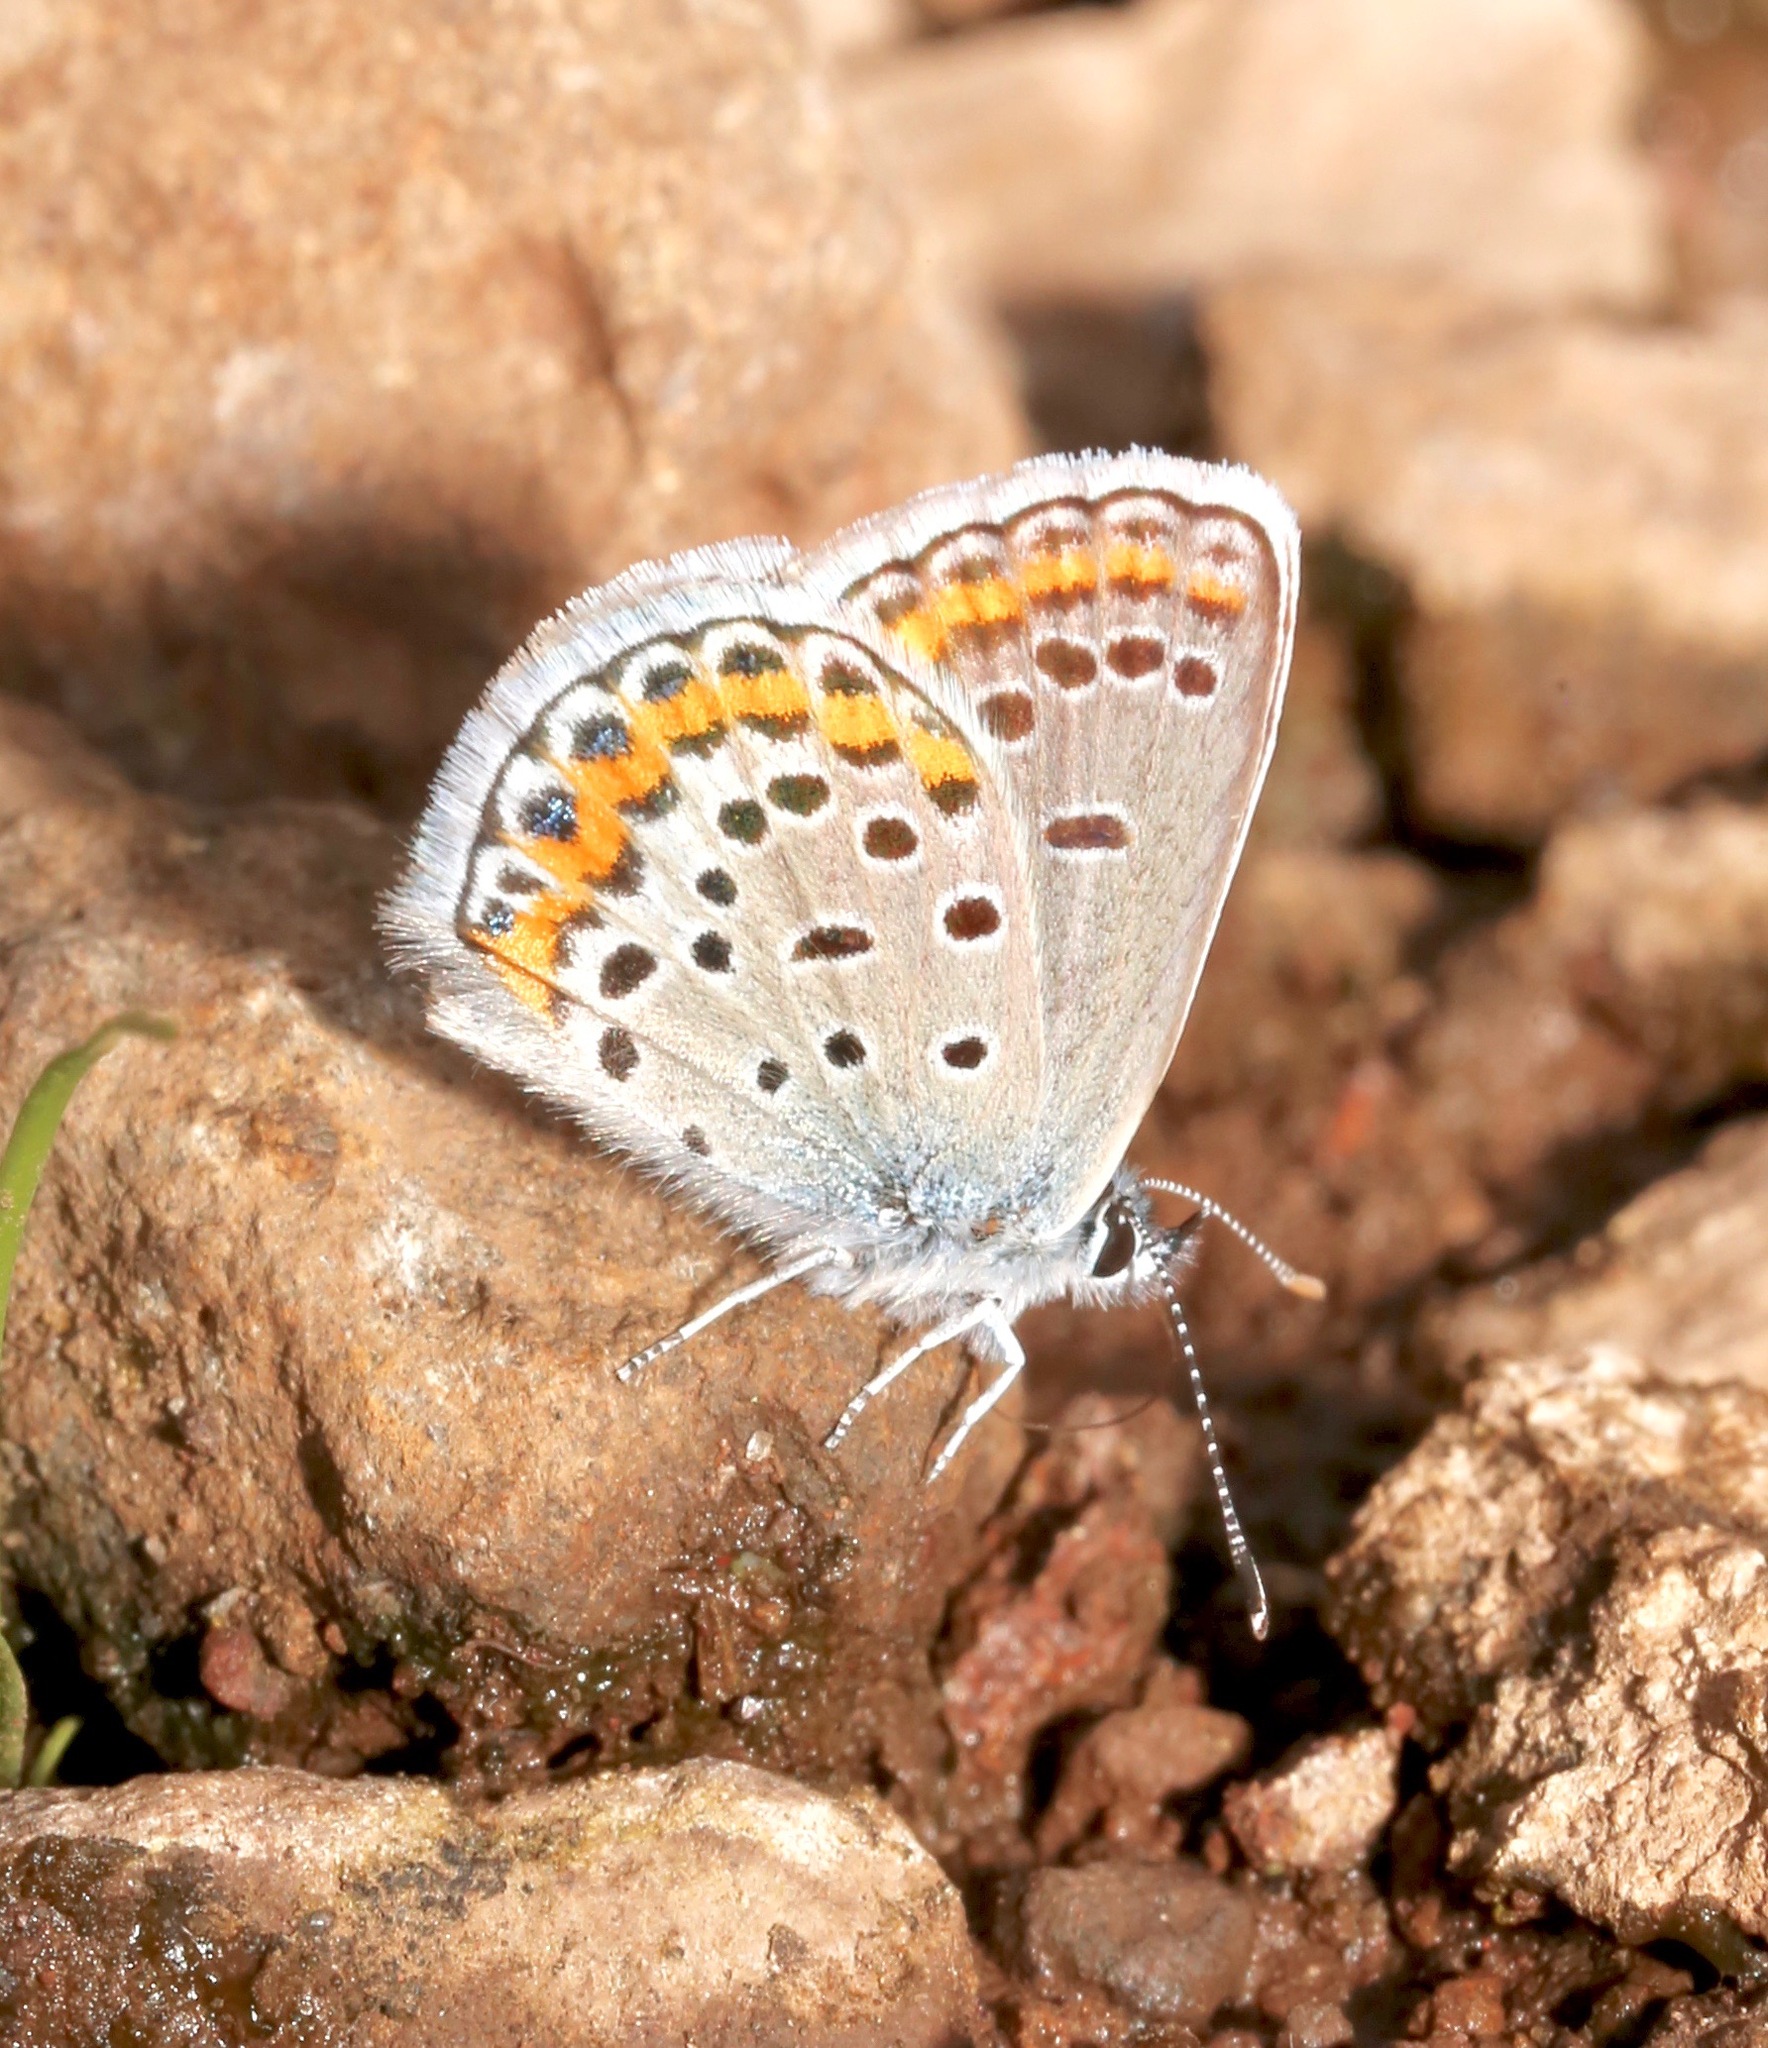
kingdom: Animalia
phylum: Arthropoda
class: Insecta
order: Lepidoptera
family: Lycaenidae
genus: Lycaeides
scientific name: Lycaeides melissa
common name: Melissa blue
